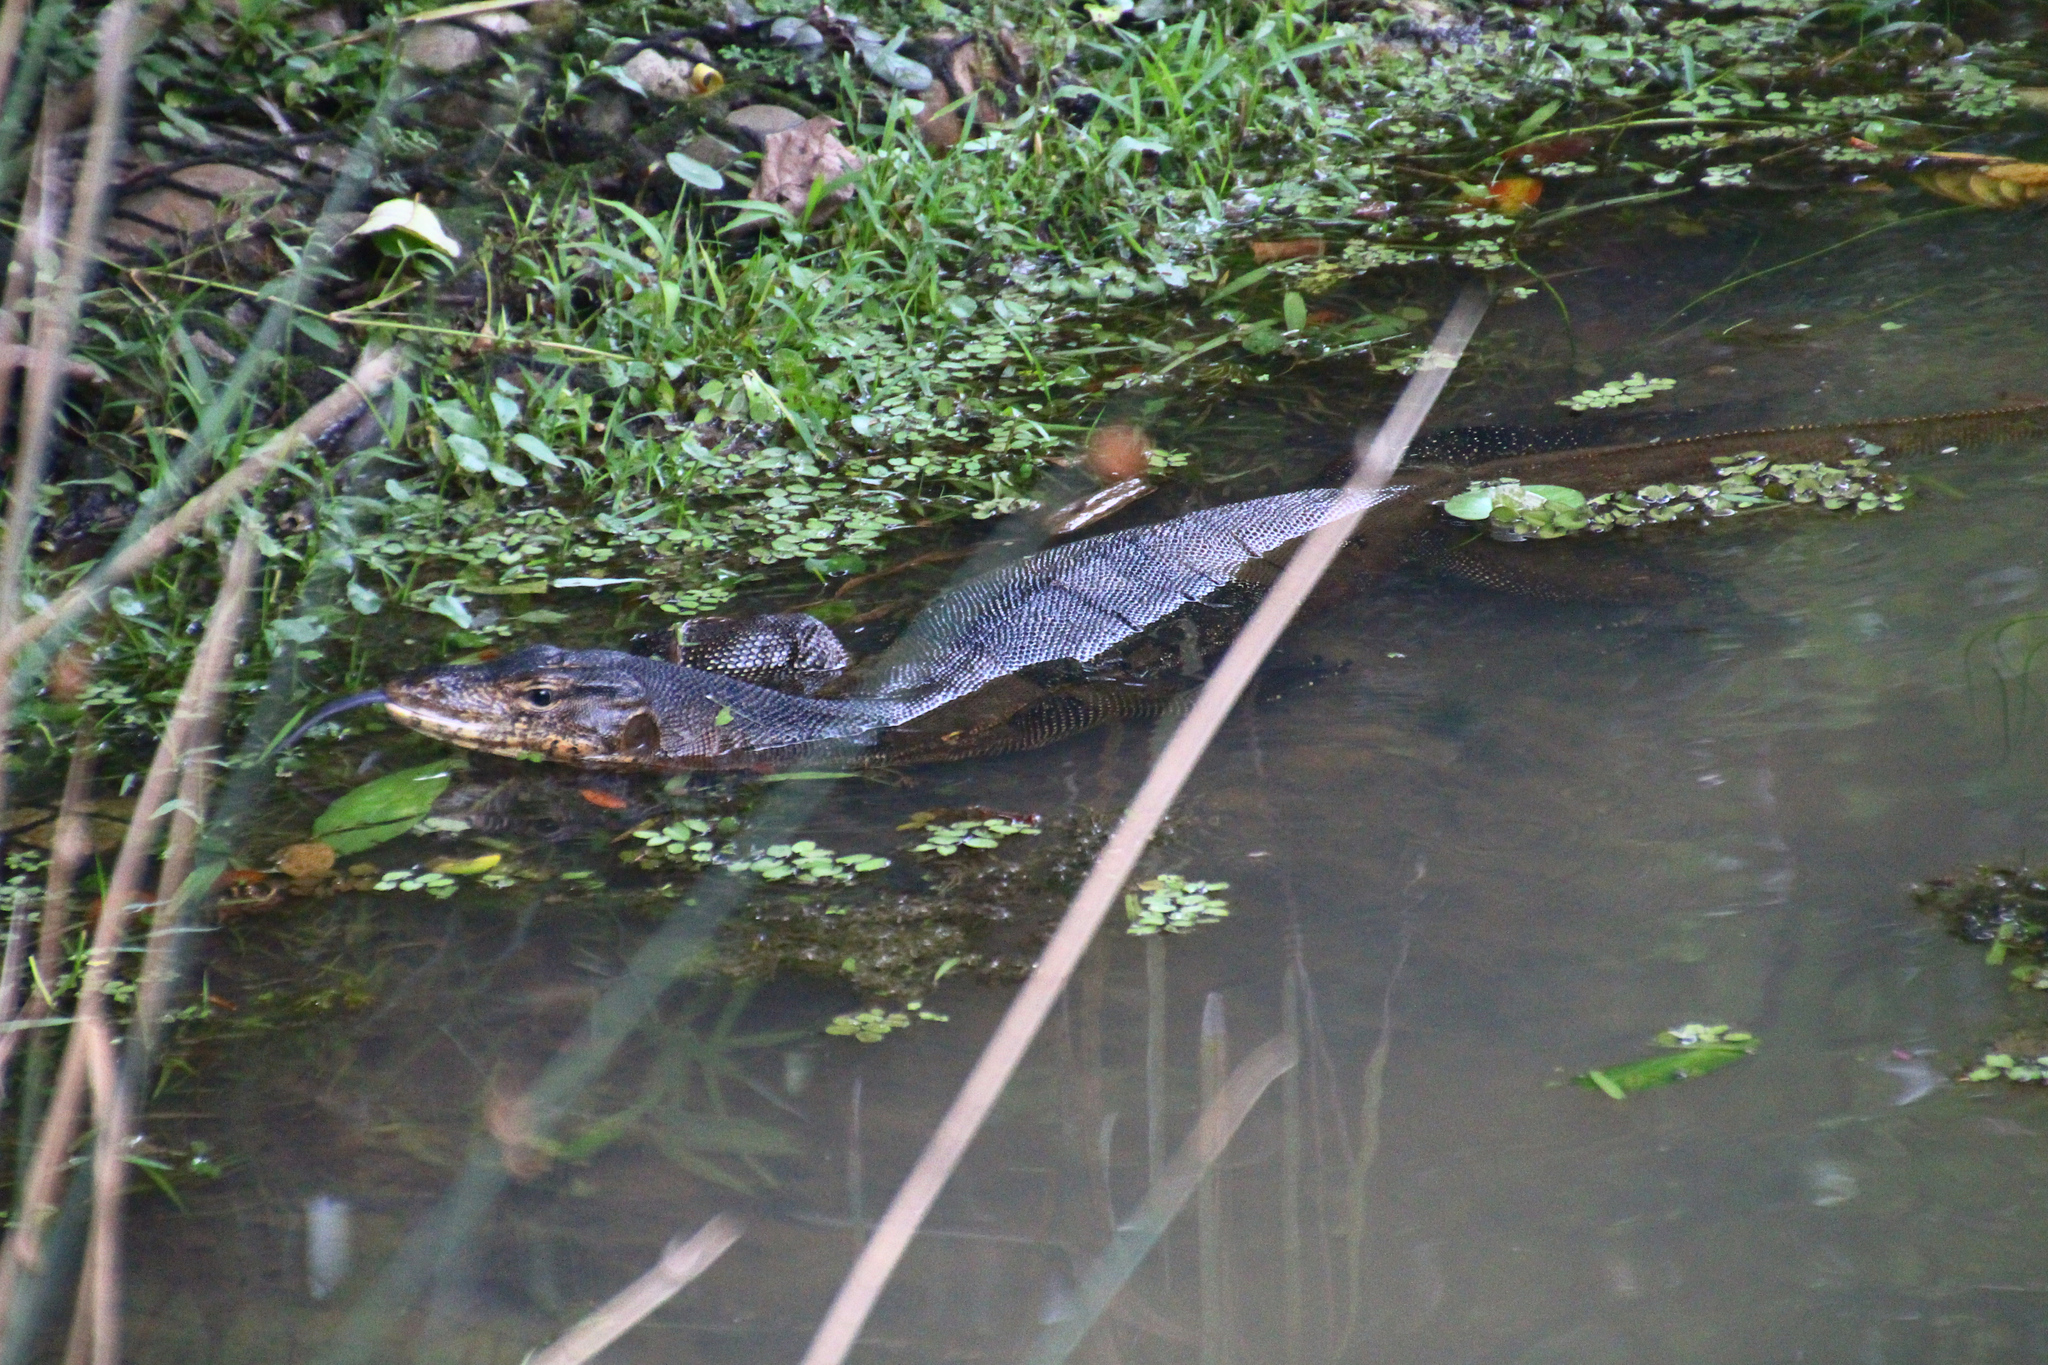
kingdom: Animalia
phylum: Chordata
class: Squamata
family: Varanidae
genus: Varanus
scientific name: Varanus salvator
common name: Common water monitor
